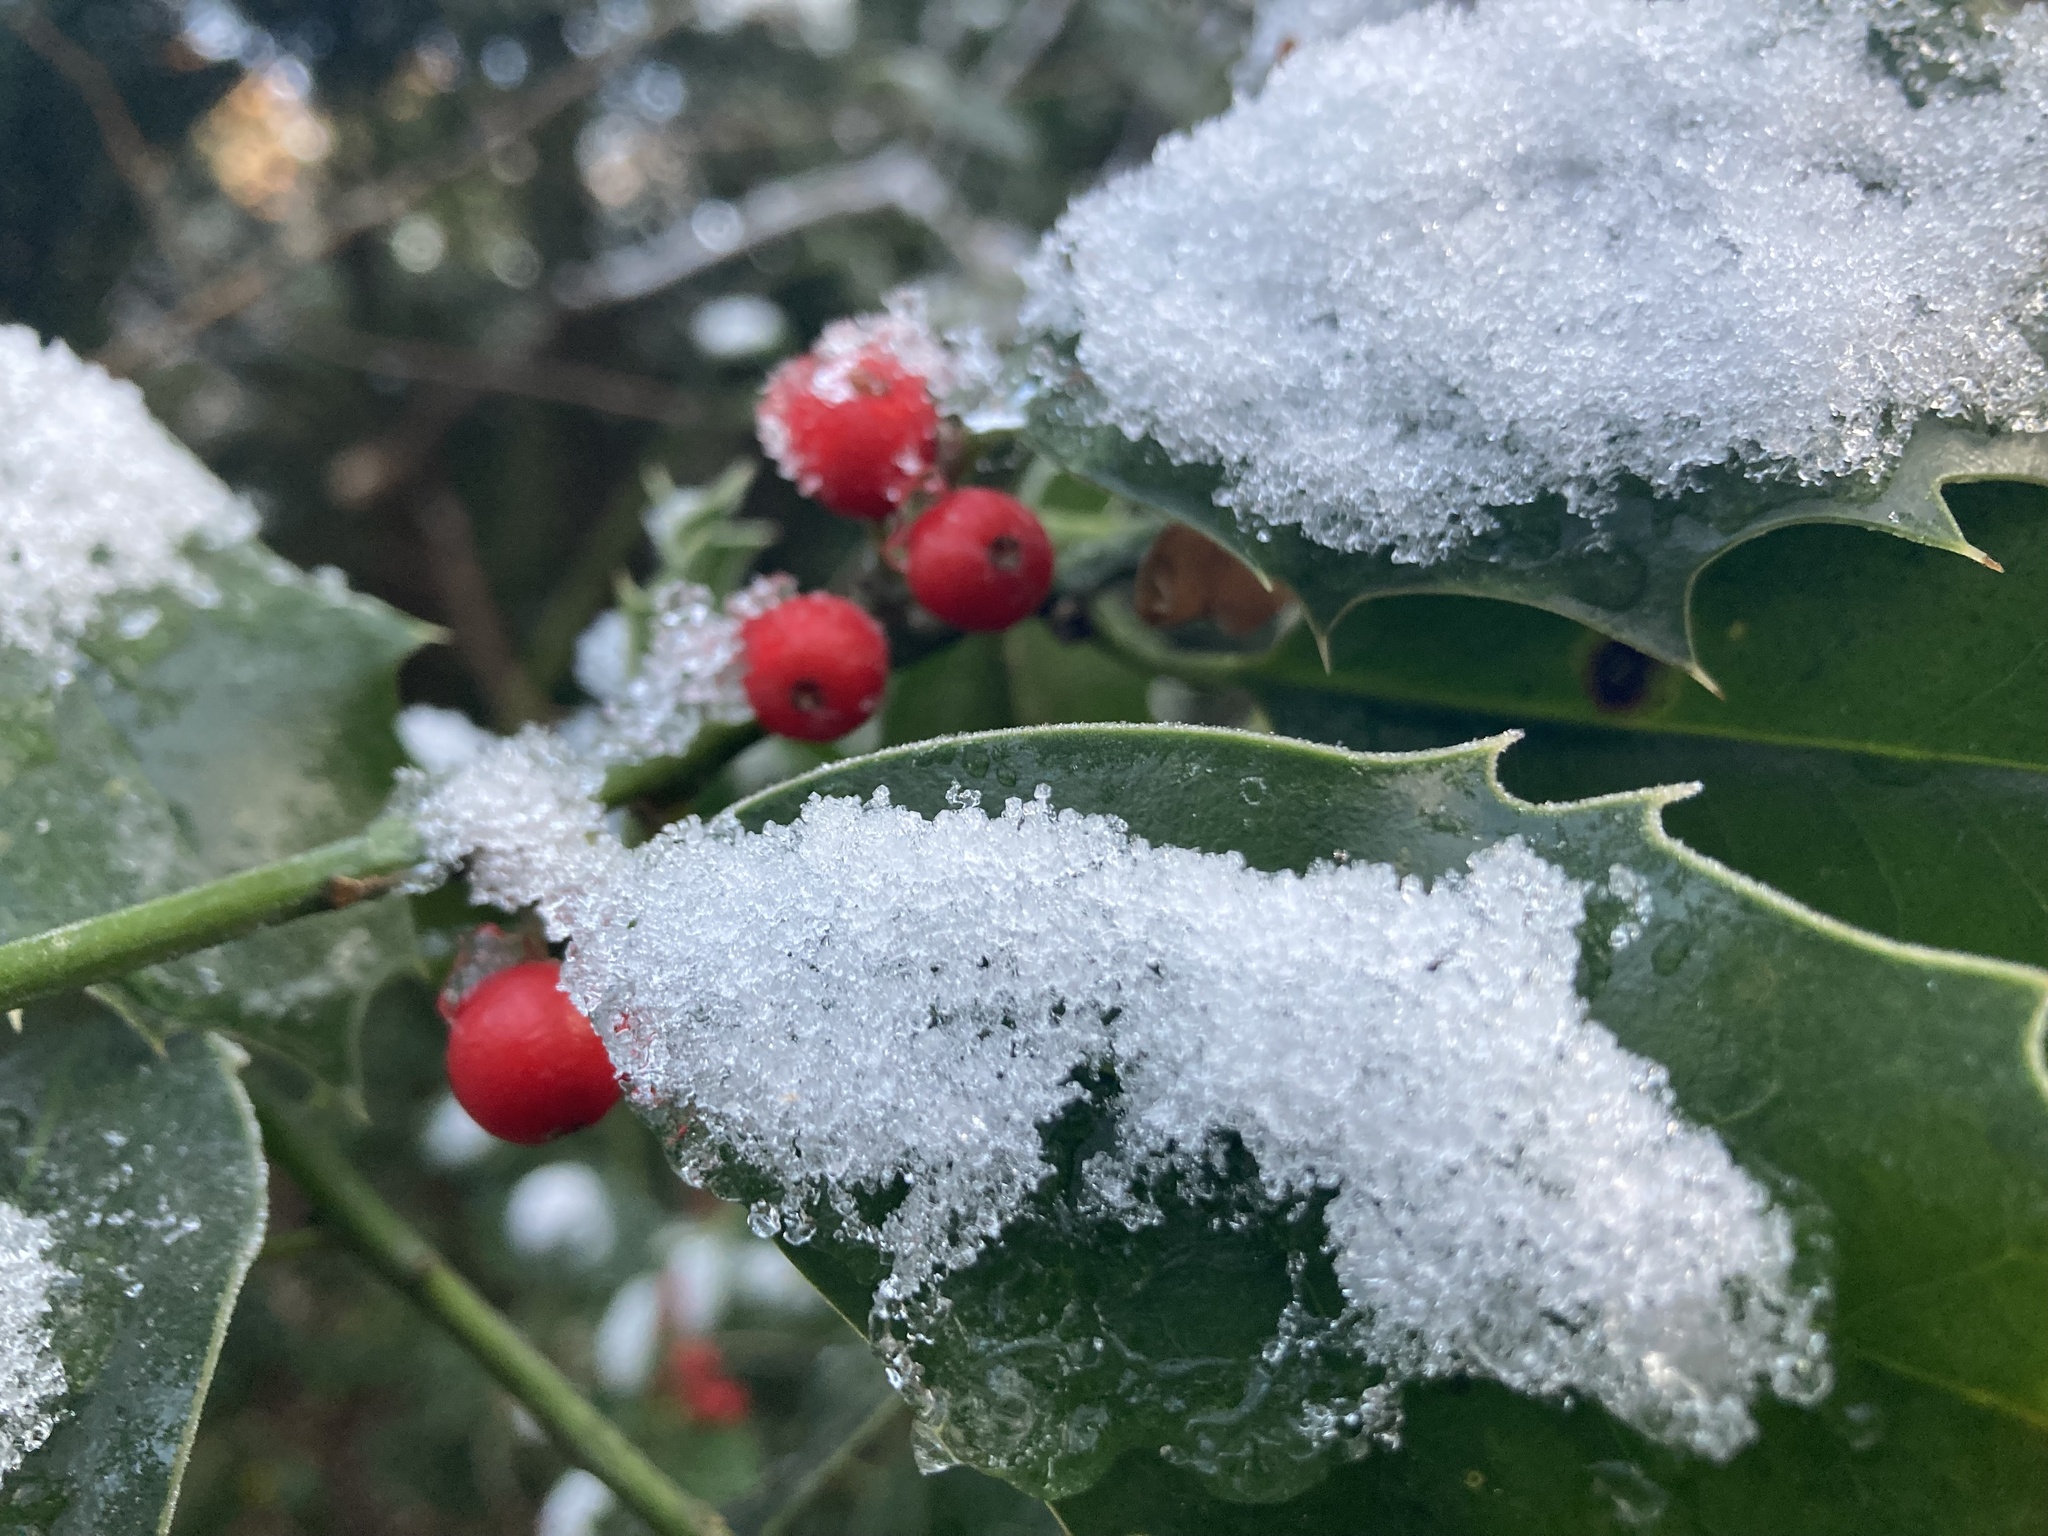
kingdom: Plantae
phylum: Tracheophyta
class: Magnoliopsida
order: Aquifoliales
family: Aquifoliaceae
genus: Ilex
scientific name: Ilex aquifolium
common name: English holly
